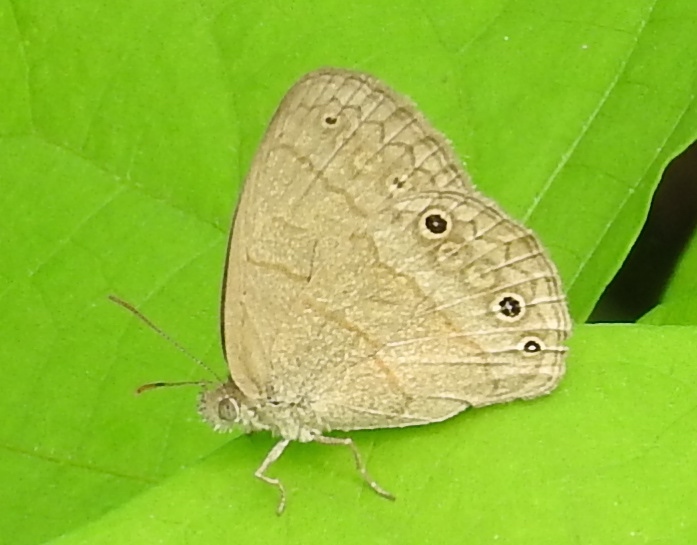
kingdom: Animalia
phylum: Arthropoda
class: Insecta
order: Lepidoptera
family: Nymphalidae
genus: Hermeuptychia
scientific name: Hermeuptychia
